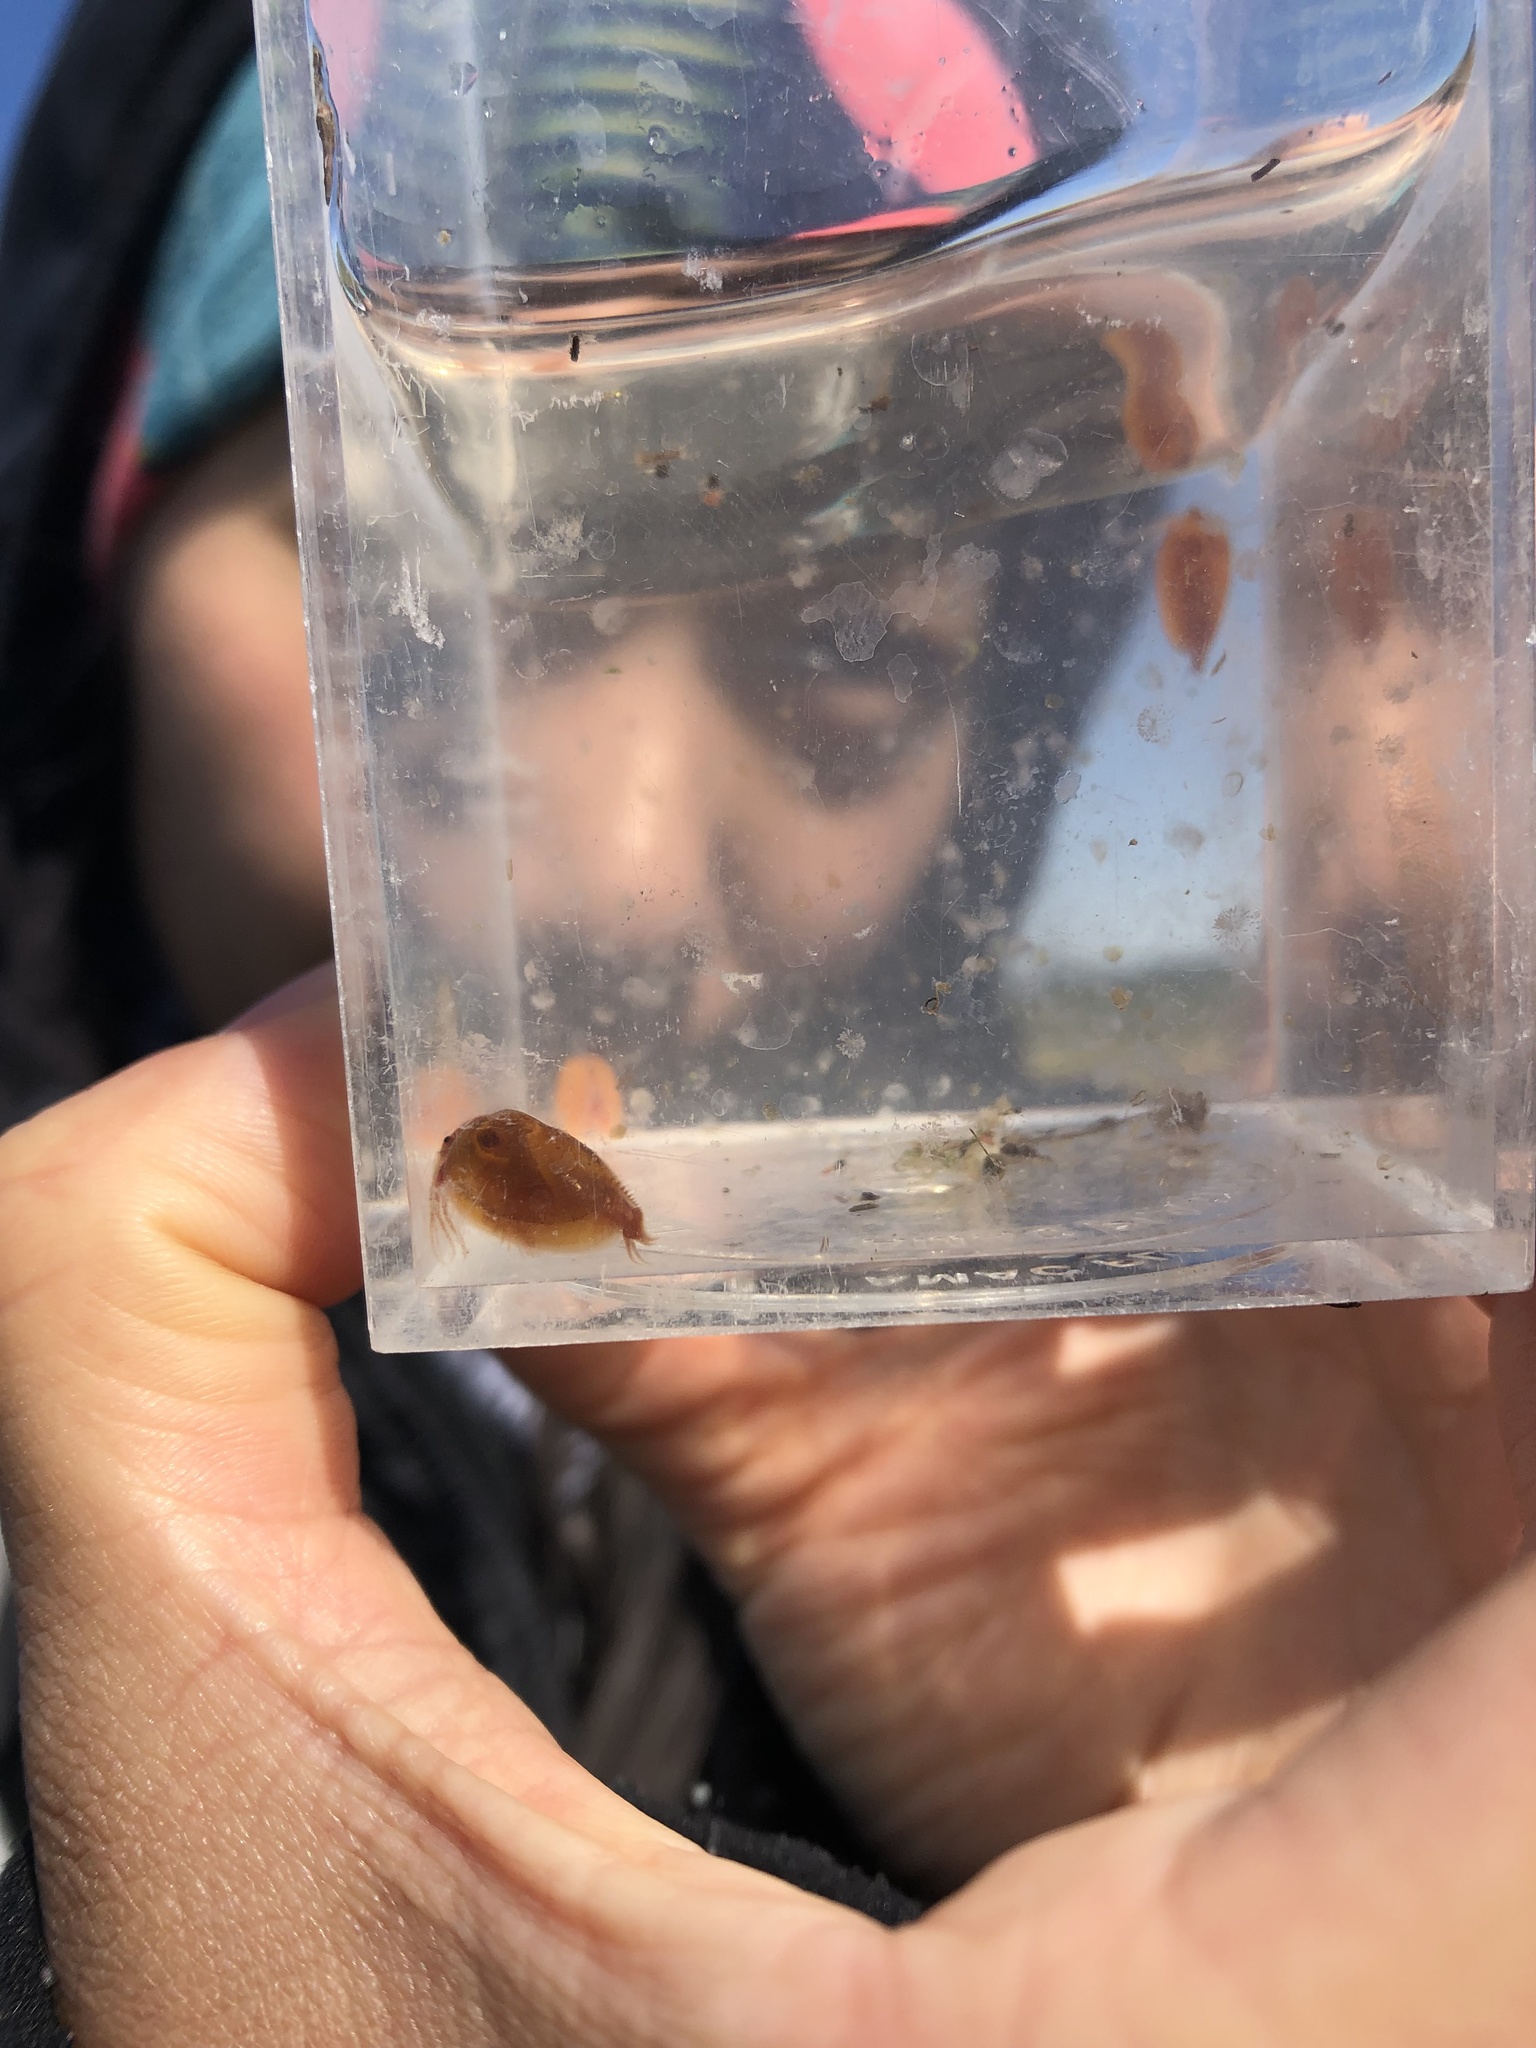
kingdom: Animalia
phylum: Arthropoda
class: Branchiopoda
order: Diplostraca
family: Cyzicidae
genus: Cyzicus
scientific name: Cyzicus californicus
